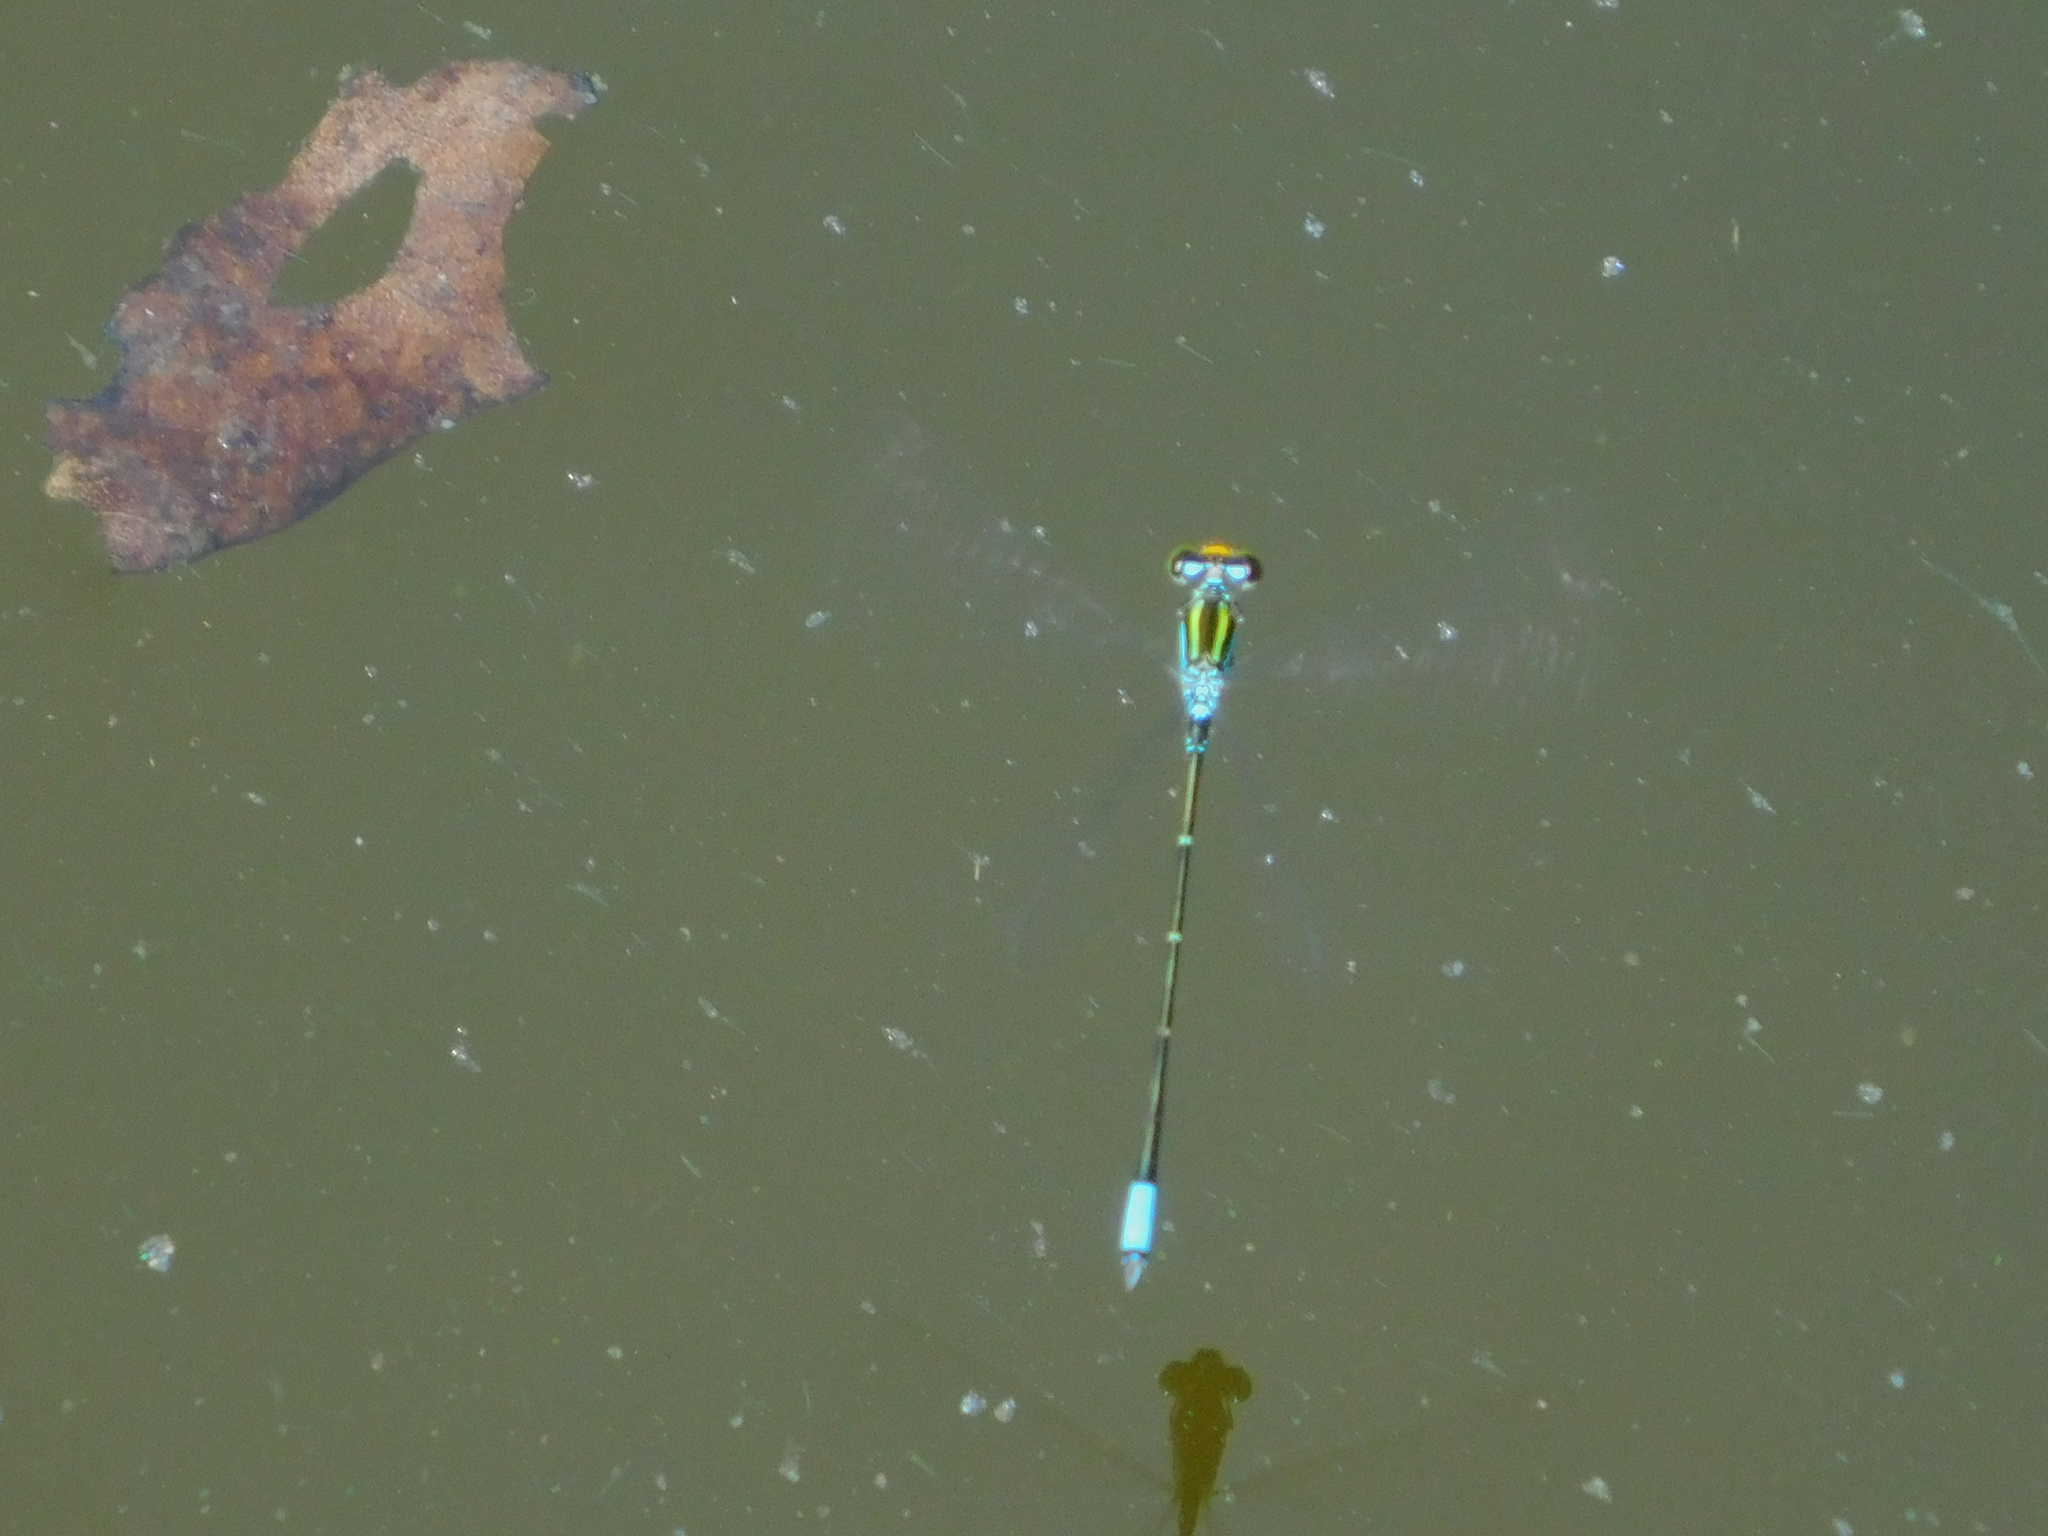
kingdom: Animalia
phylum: Arthropoda
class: Insecta
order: Odonata
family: Coenagrionidae
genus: Neoerythromma
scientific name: Neoerythromma cultellatum
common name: Caribbean yellowface
